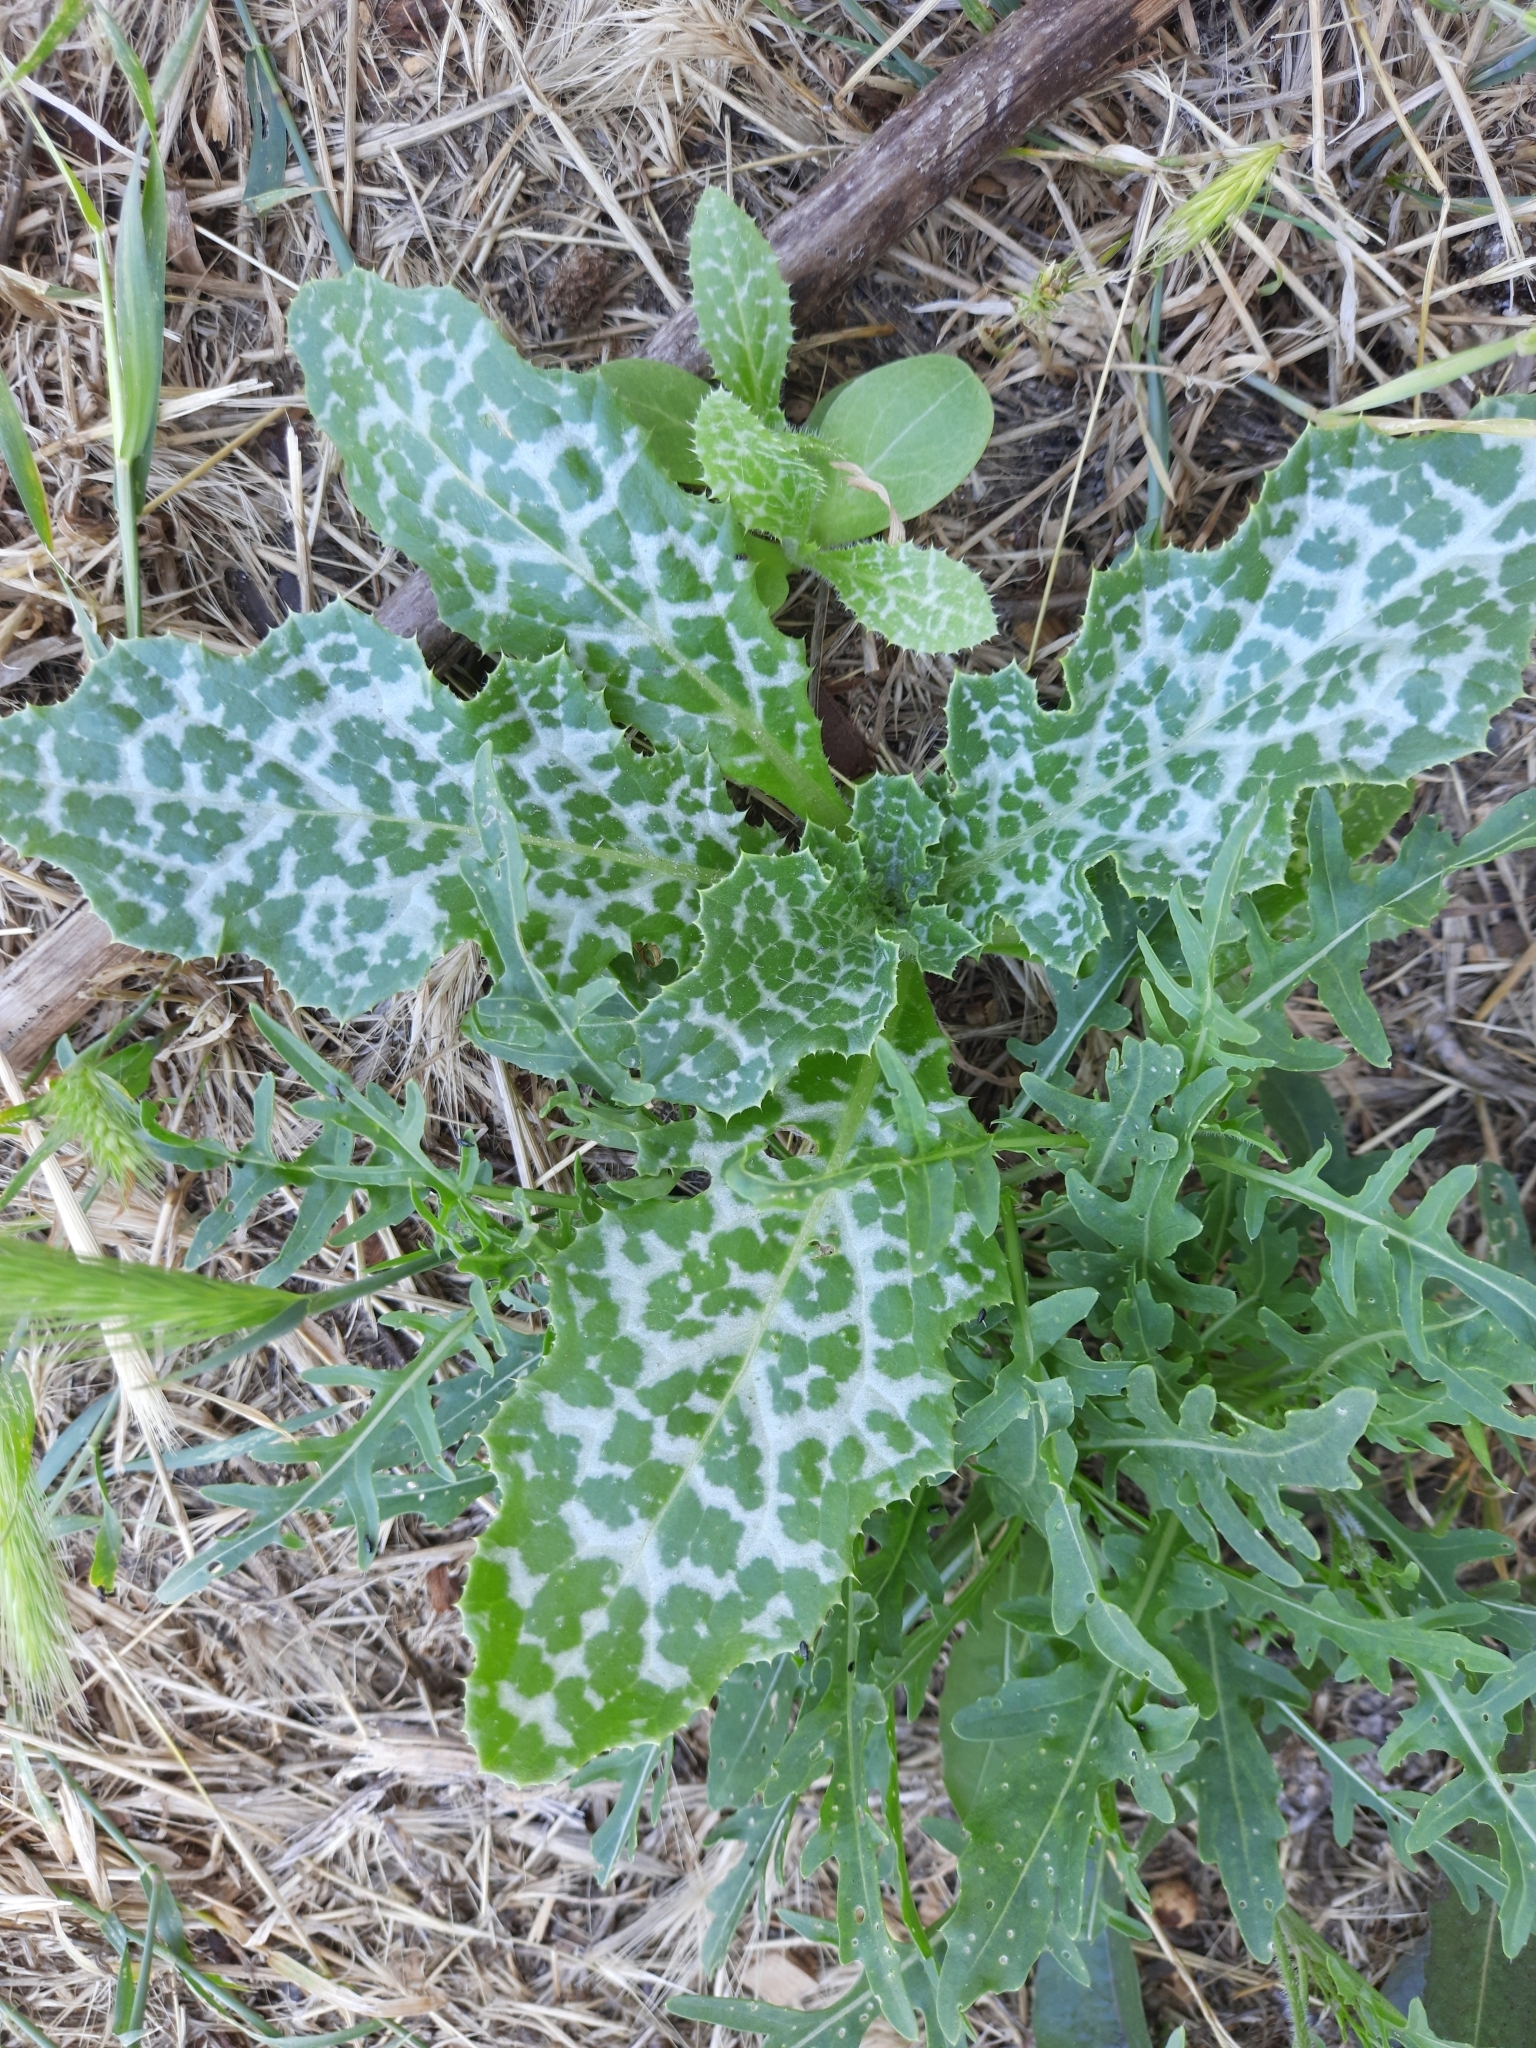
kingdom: Plantae
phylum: Tracheophyta
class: Magnoliopsida
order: Asterales
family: Asteraceae
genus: Silybum
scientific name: Silybum marianum
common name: Milk thistle
